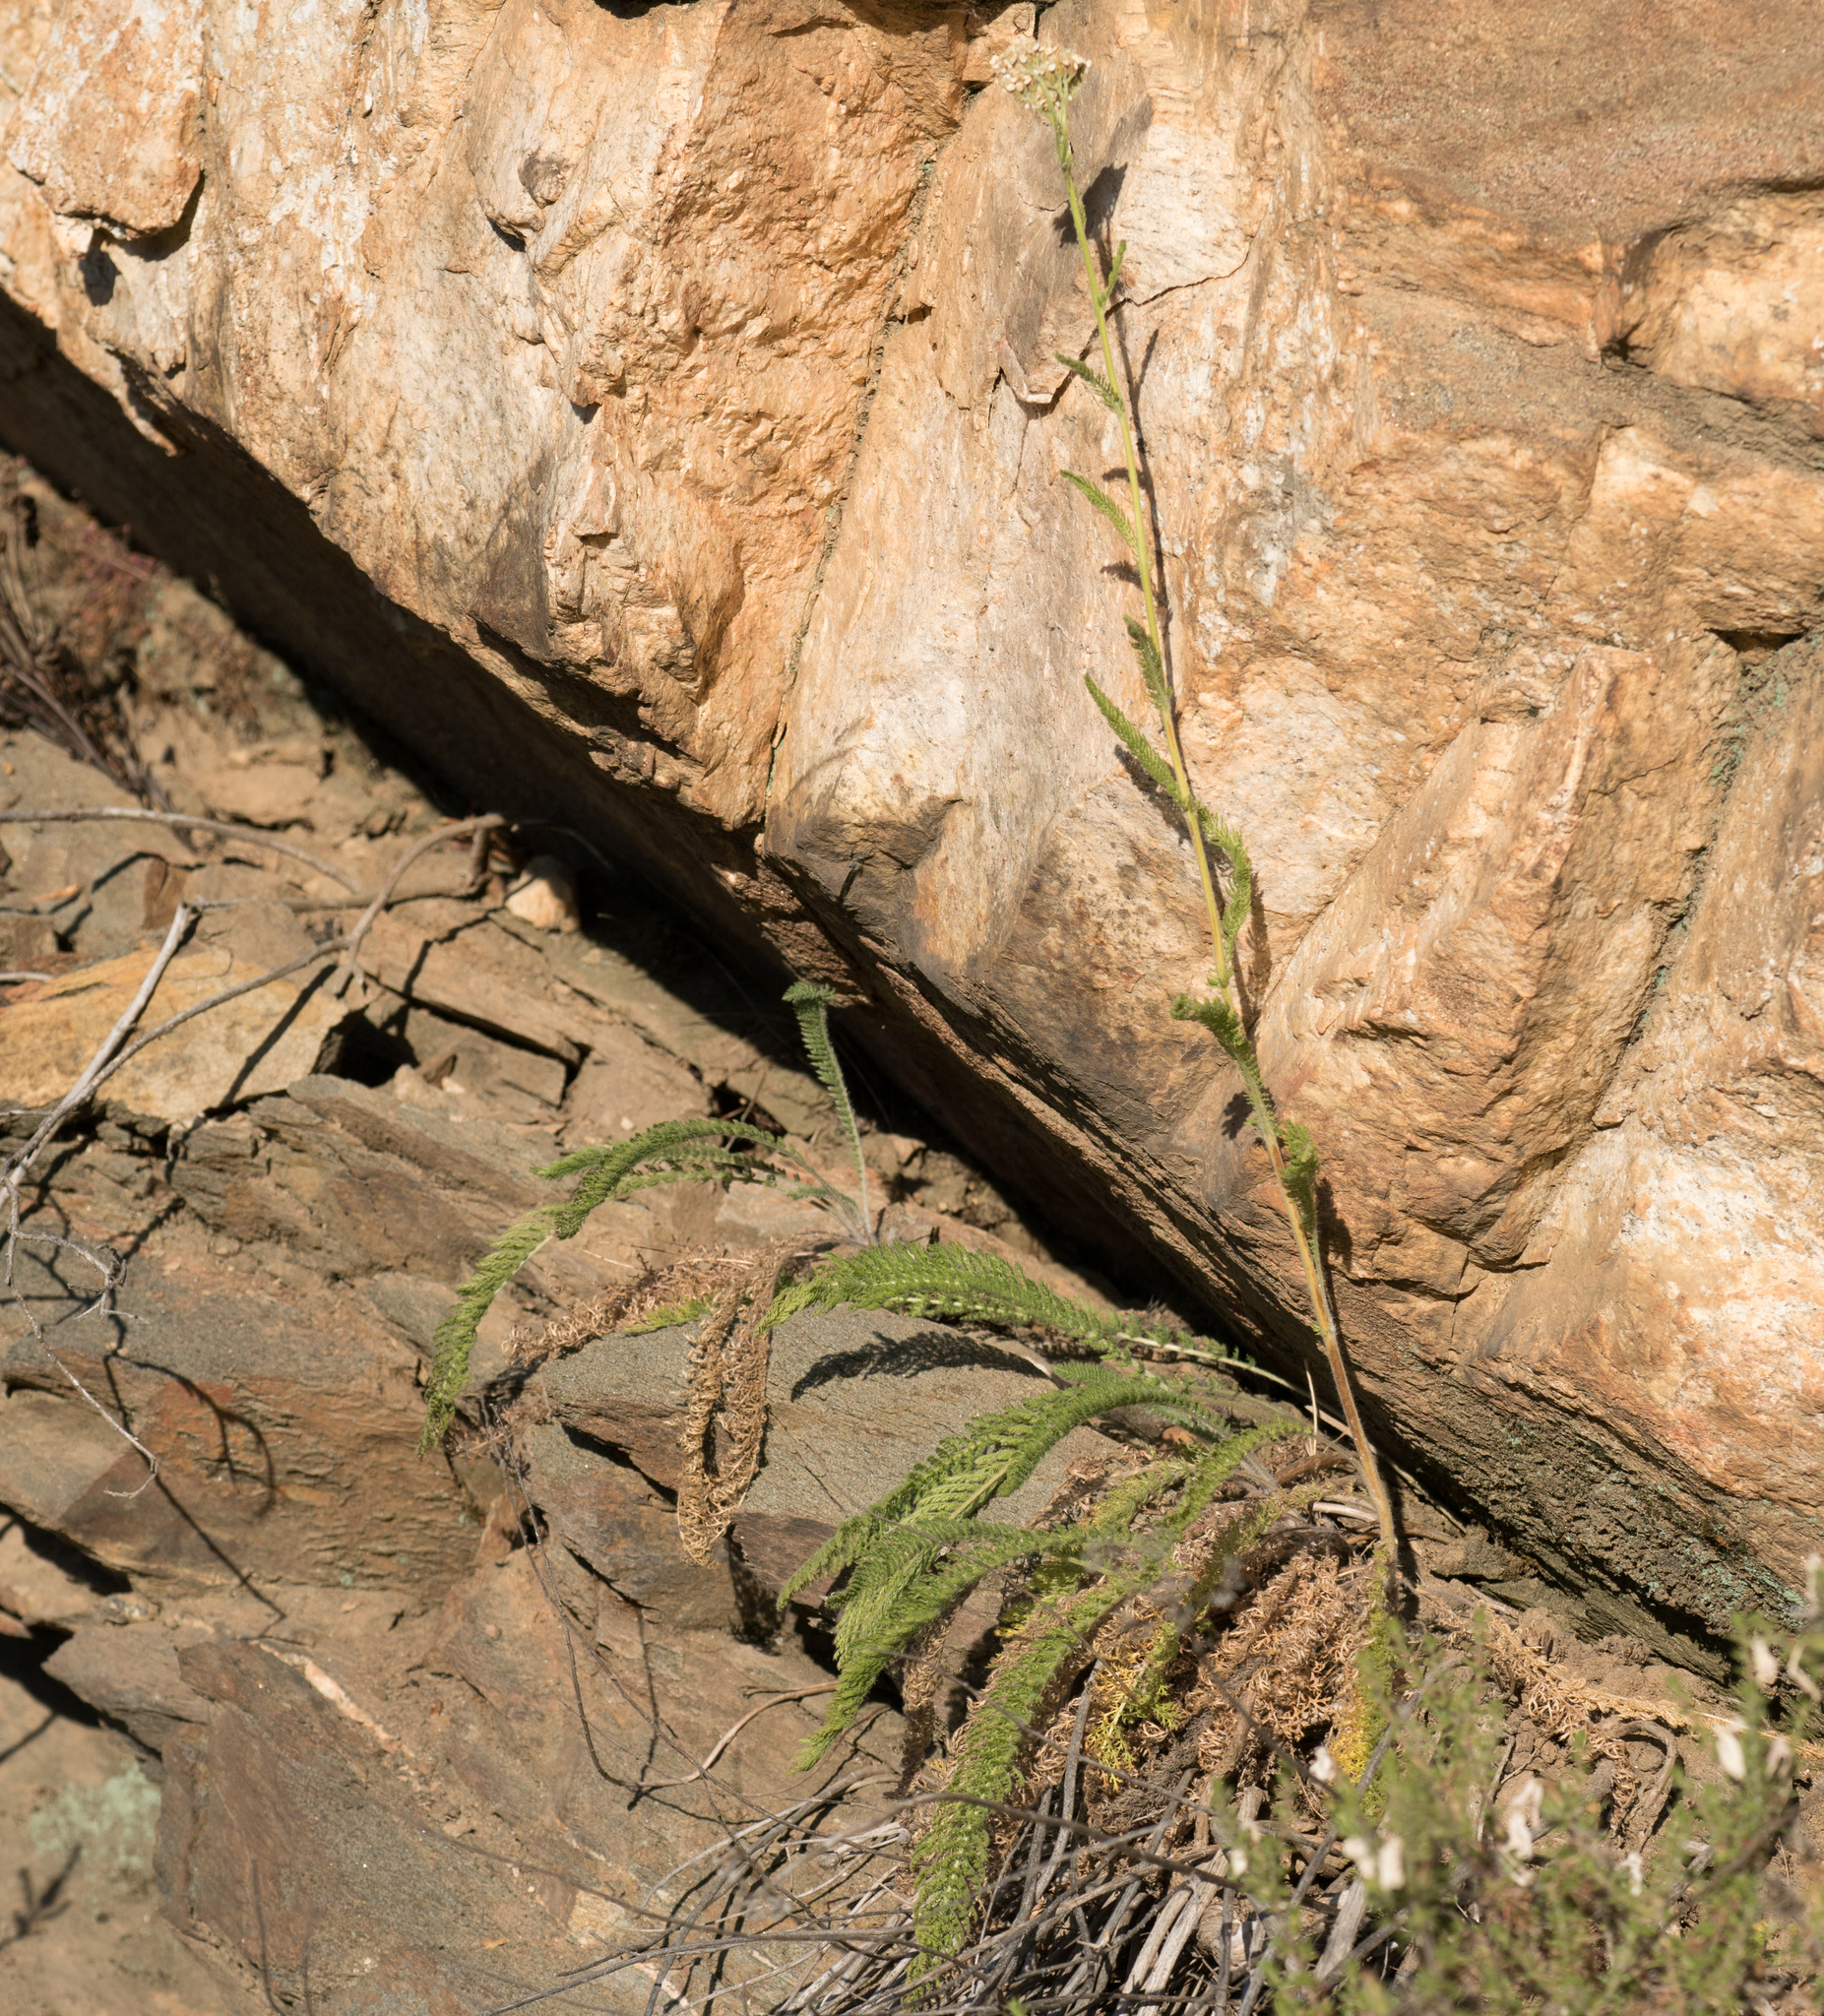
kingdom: Plantae
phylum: Tracheophyta
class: Magnoliopsida
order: Asterales
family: Asteraceae
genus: Achillea
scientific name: Achillea millefolium
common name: Yarrow
